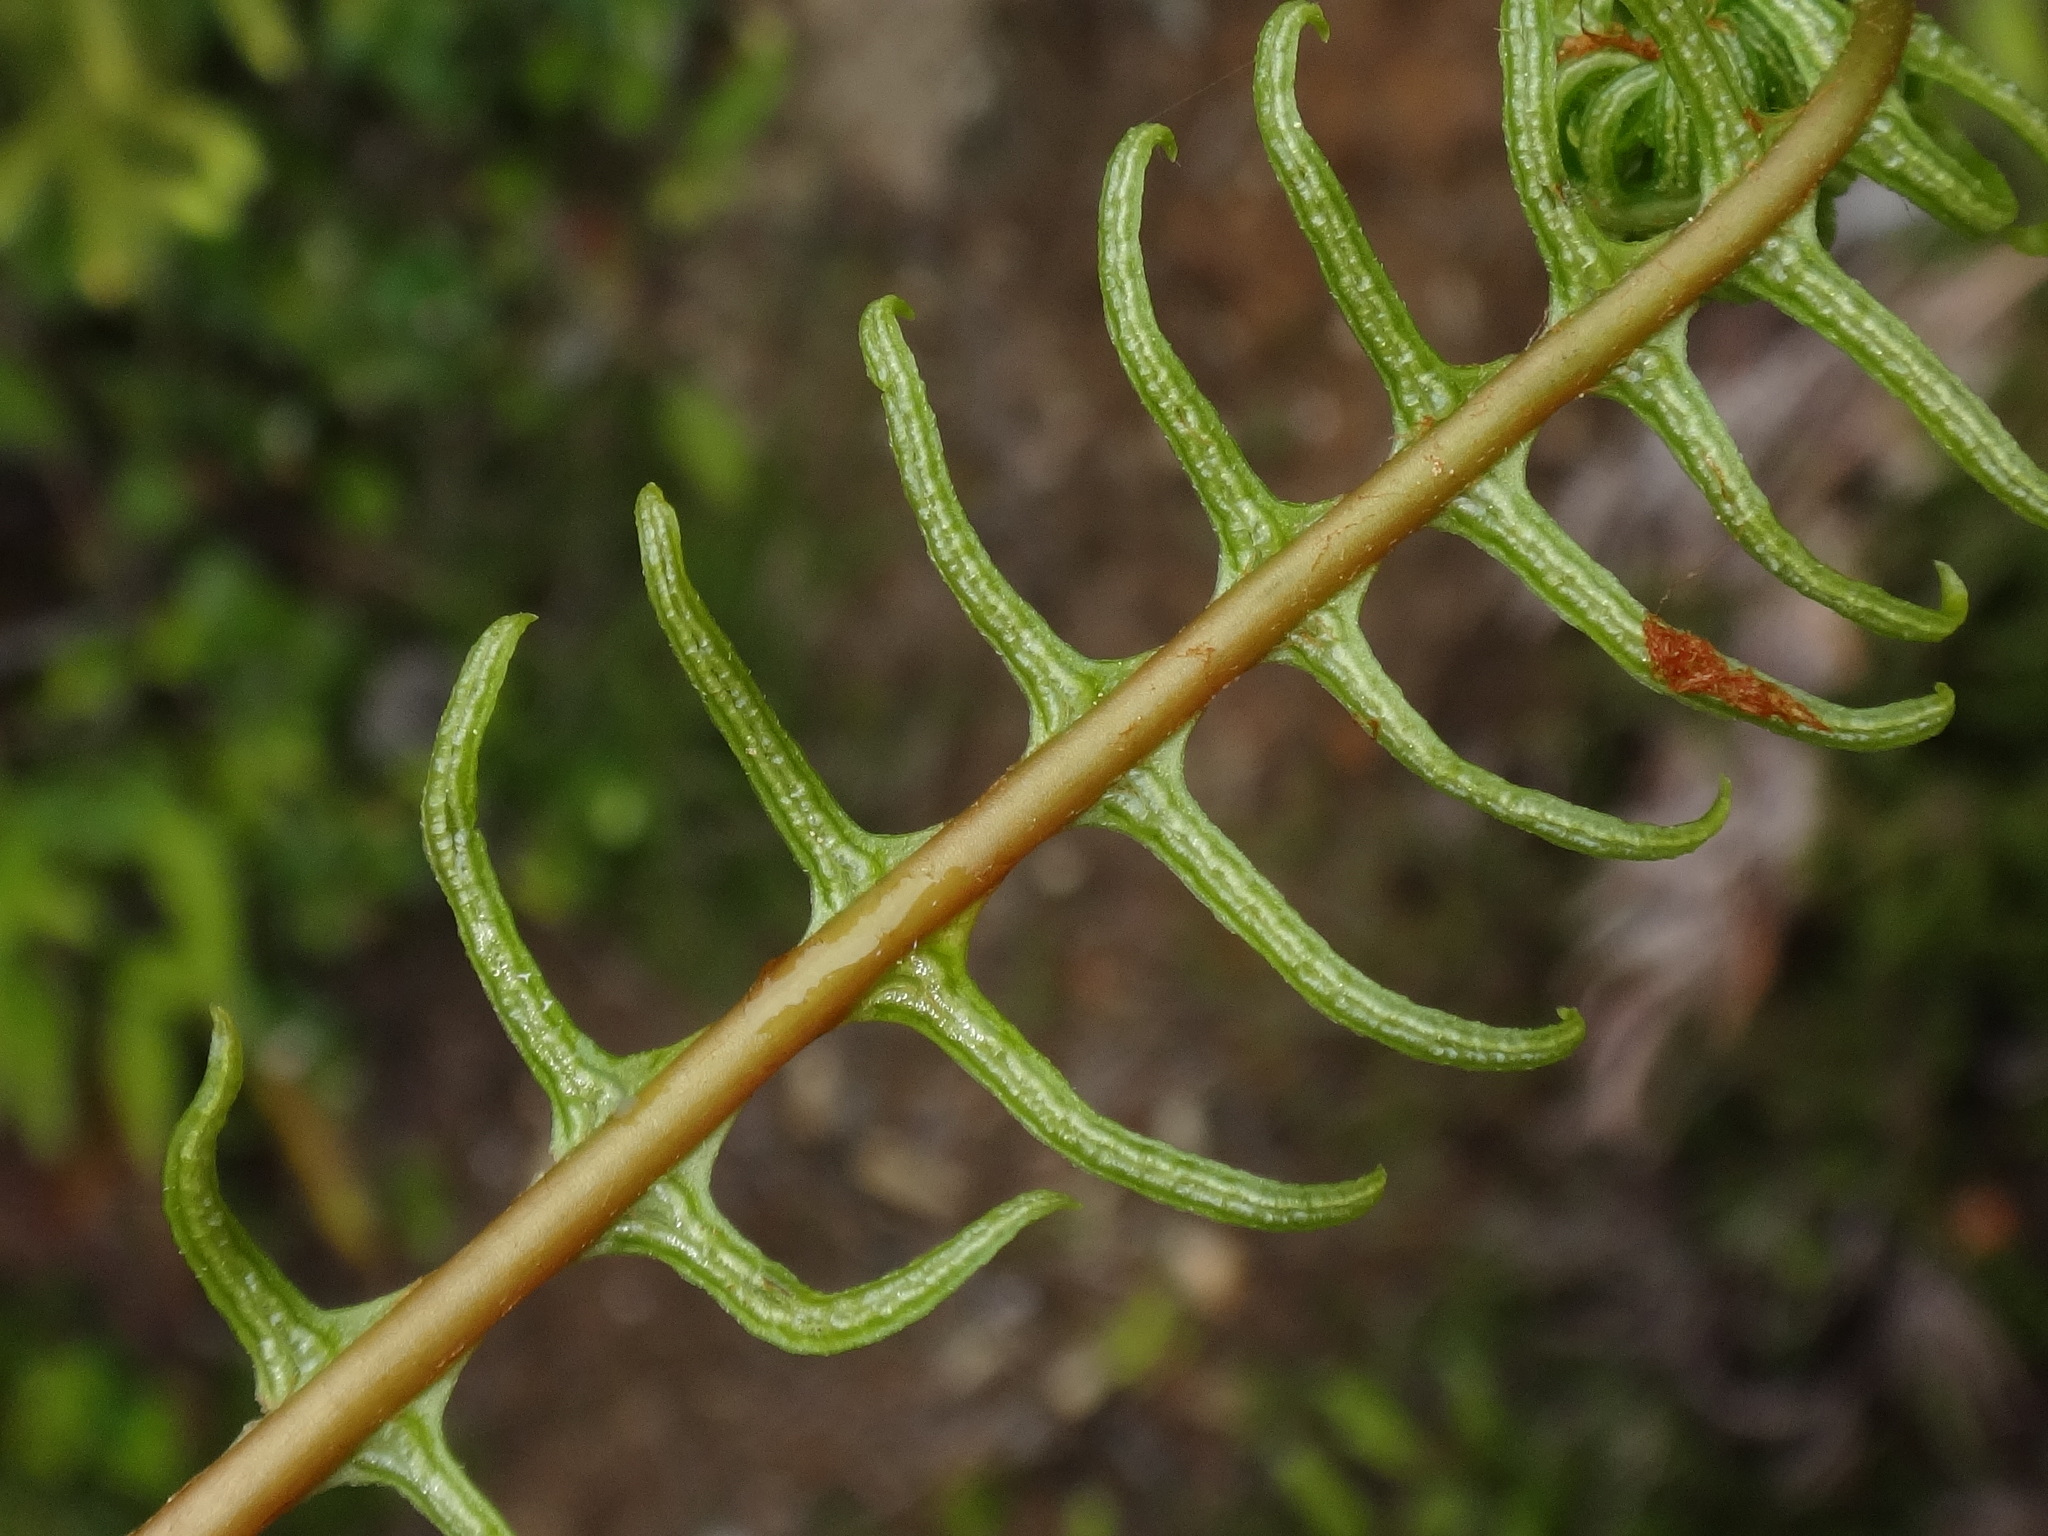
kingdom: Plantae
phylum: Tracheophyta
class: Polypodiopsida
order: Polypodiales
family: Blechnaceae
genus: Struthiopteris
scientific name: Struthiopteris spicant
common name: Deer fern
